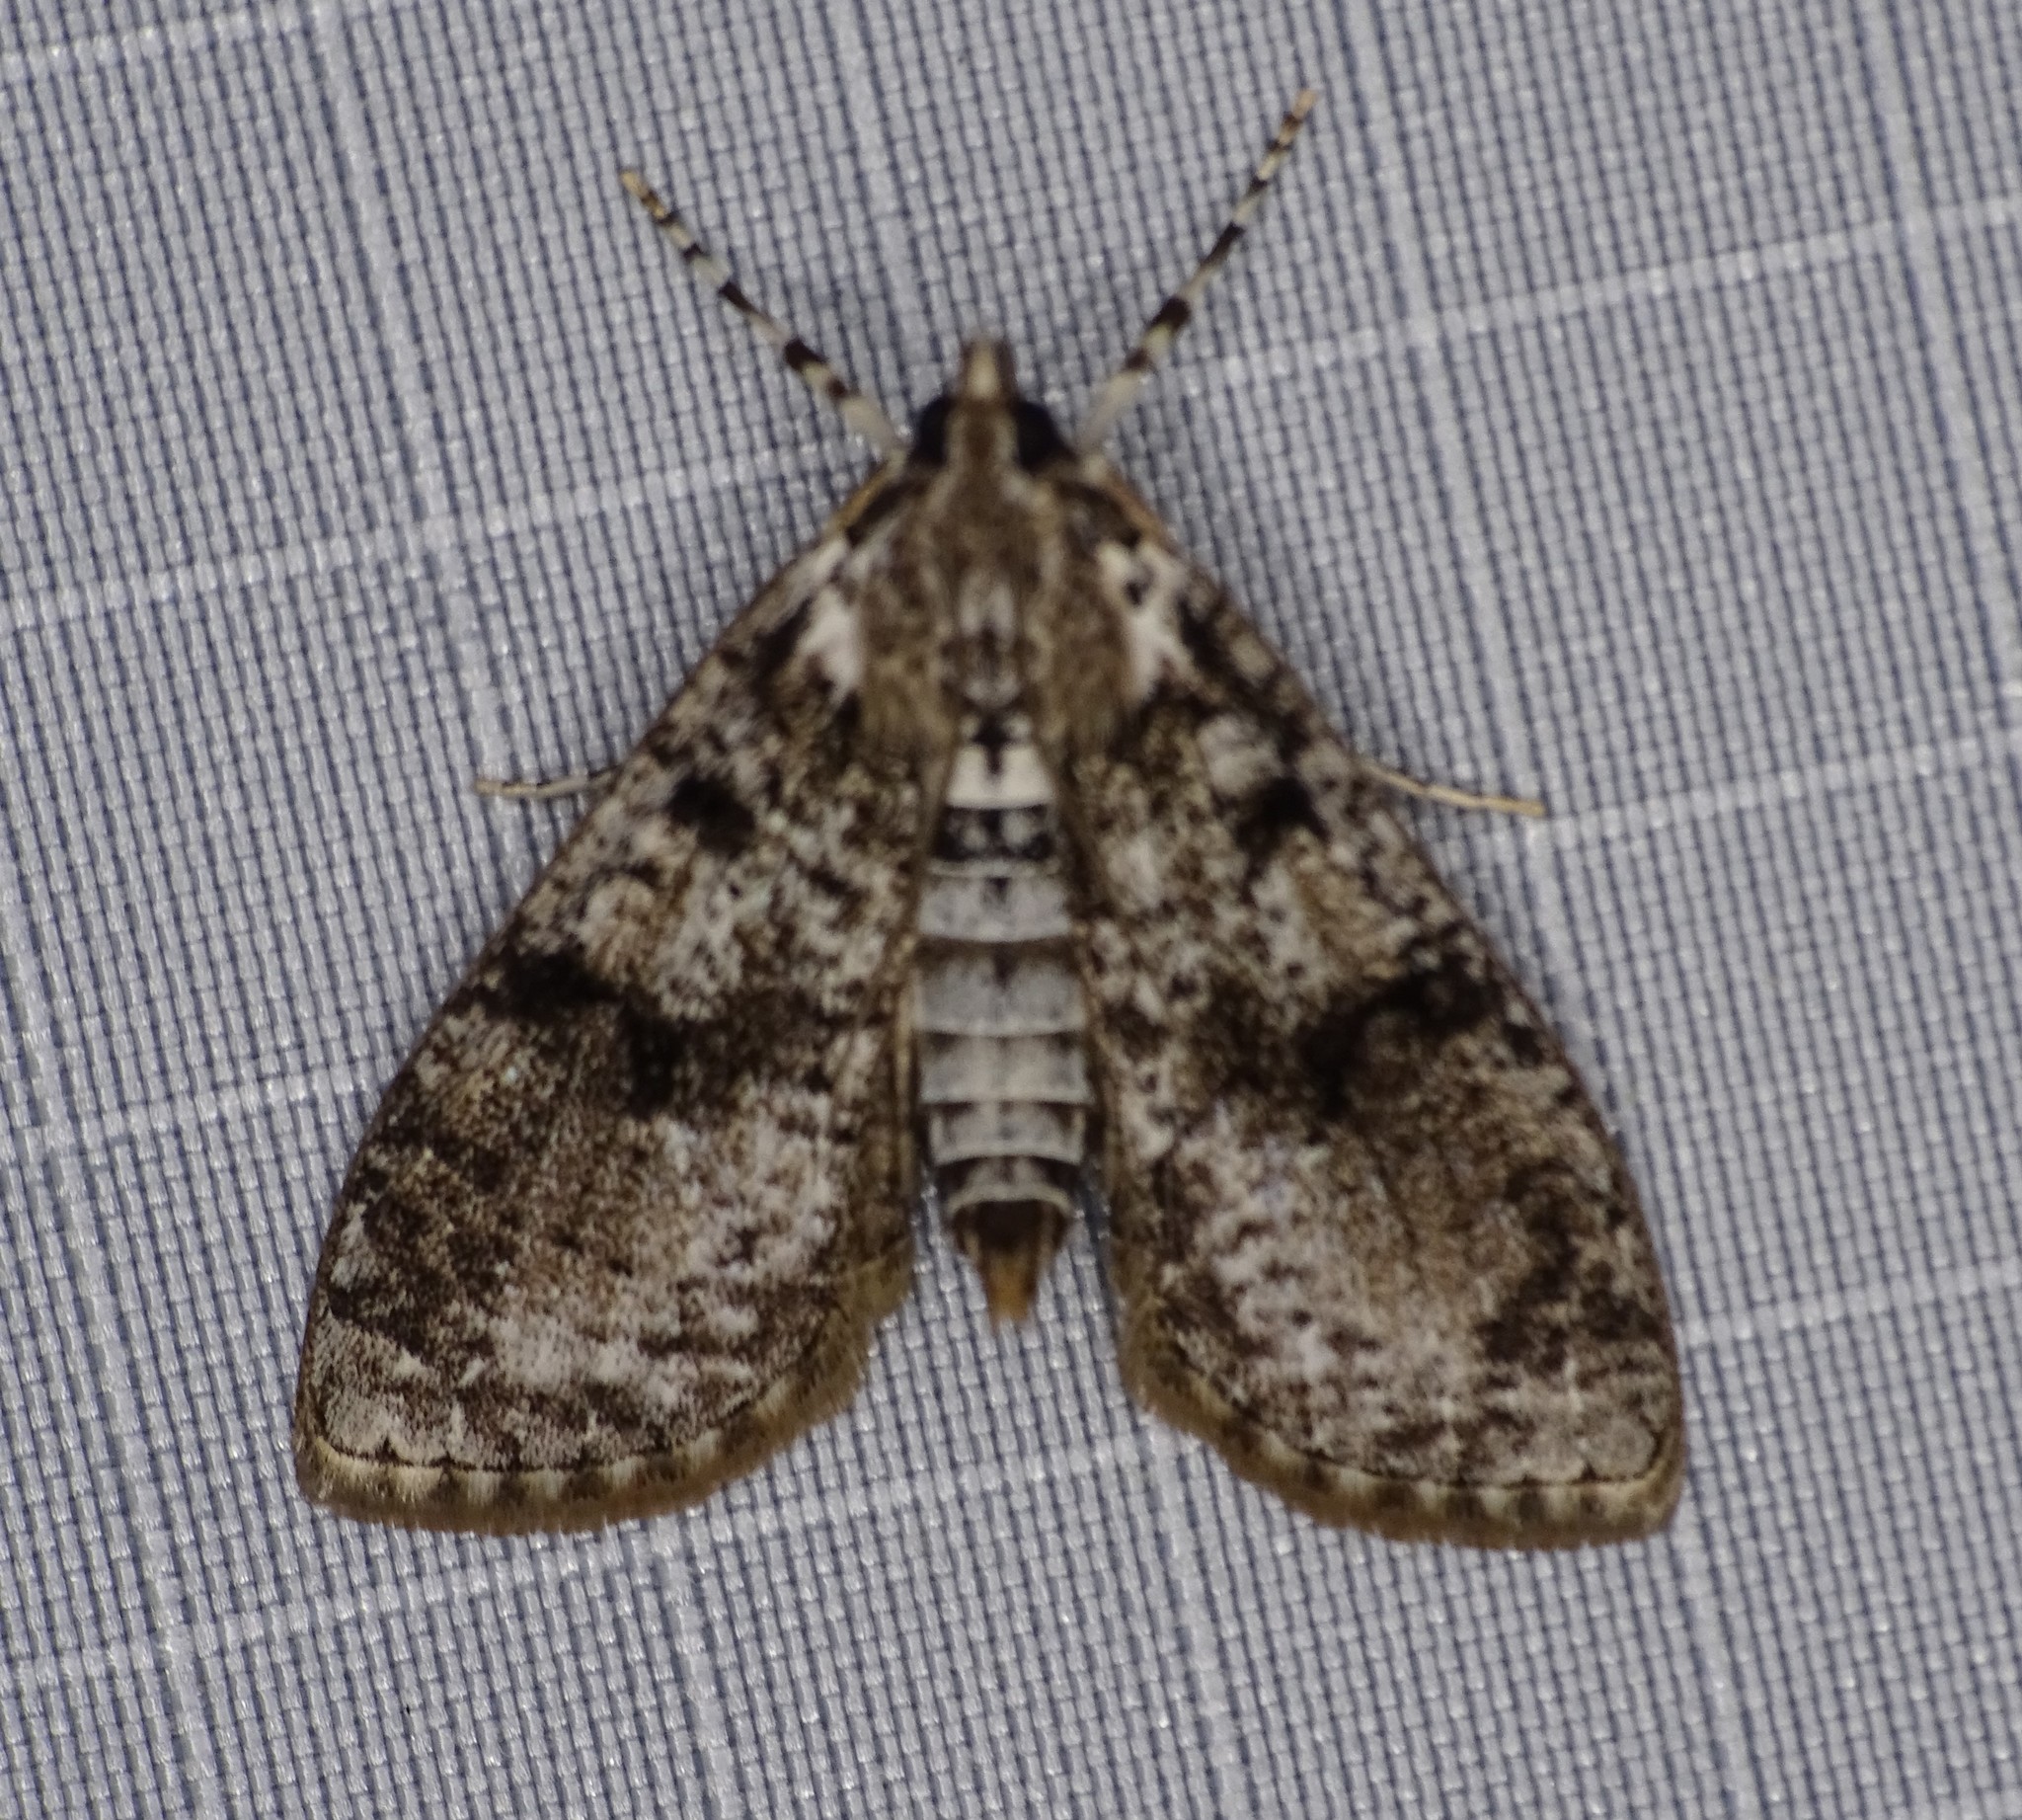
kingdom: Animalia
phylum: Arthropoda
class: Insecta
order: Lepidoptera
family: Crambidae
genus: Palpita
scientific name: Palpita magniferalis
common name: Splendid palpita moth
